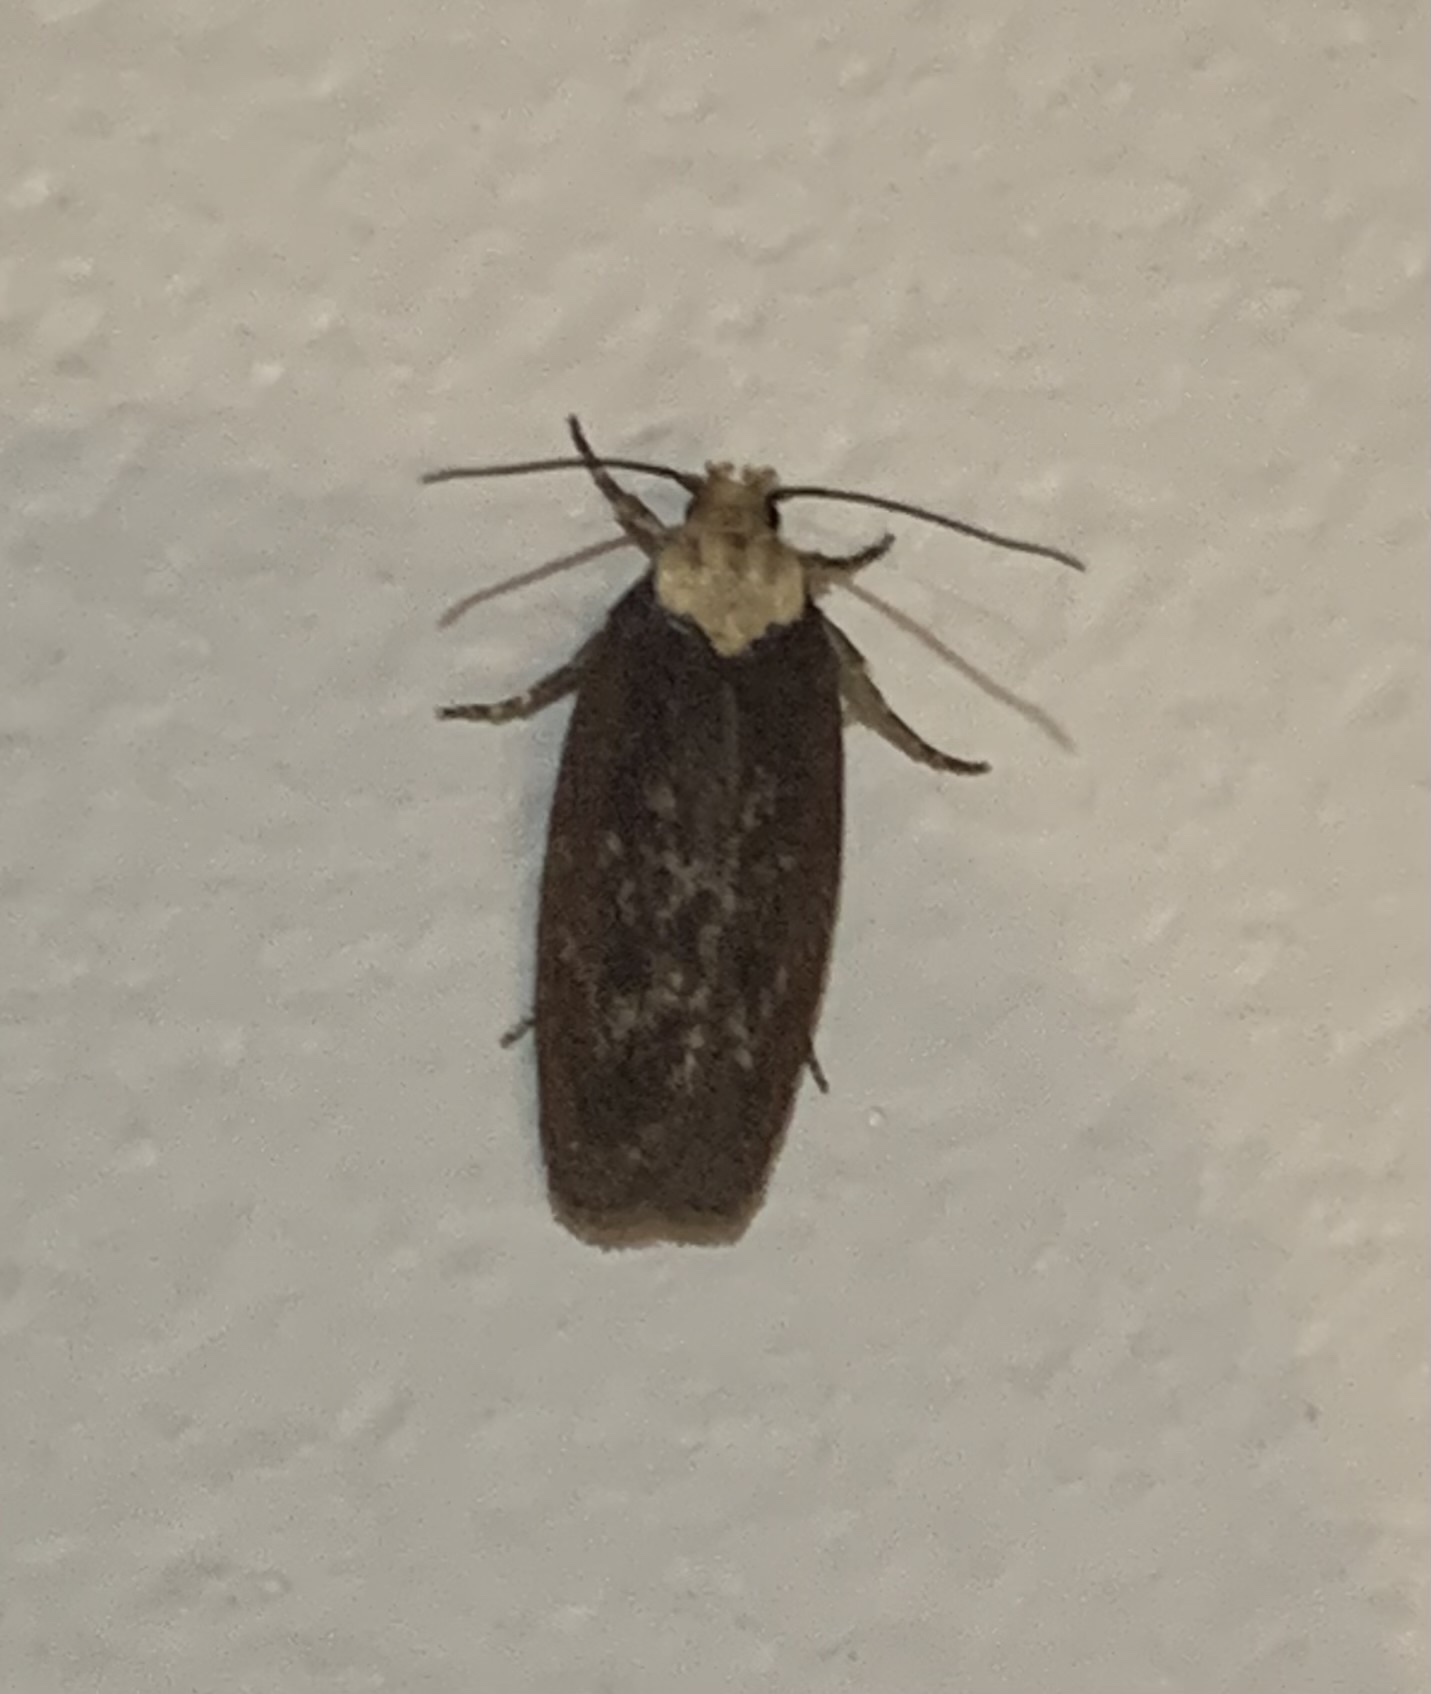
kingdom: Animalia
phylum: Arthropoda
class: Insecta
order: Lepidoptera
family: Depressariidae
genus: Depressaria
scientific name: Depressaria depressana
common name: Lost flat-body
